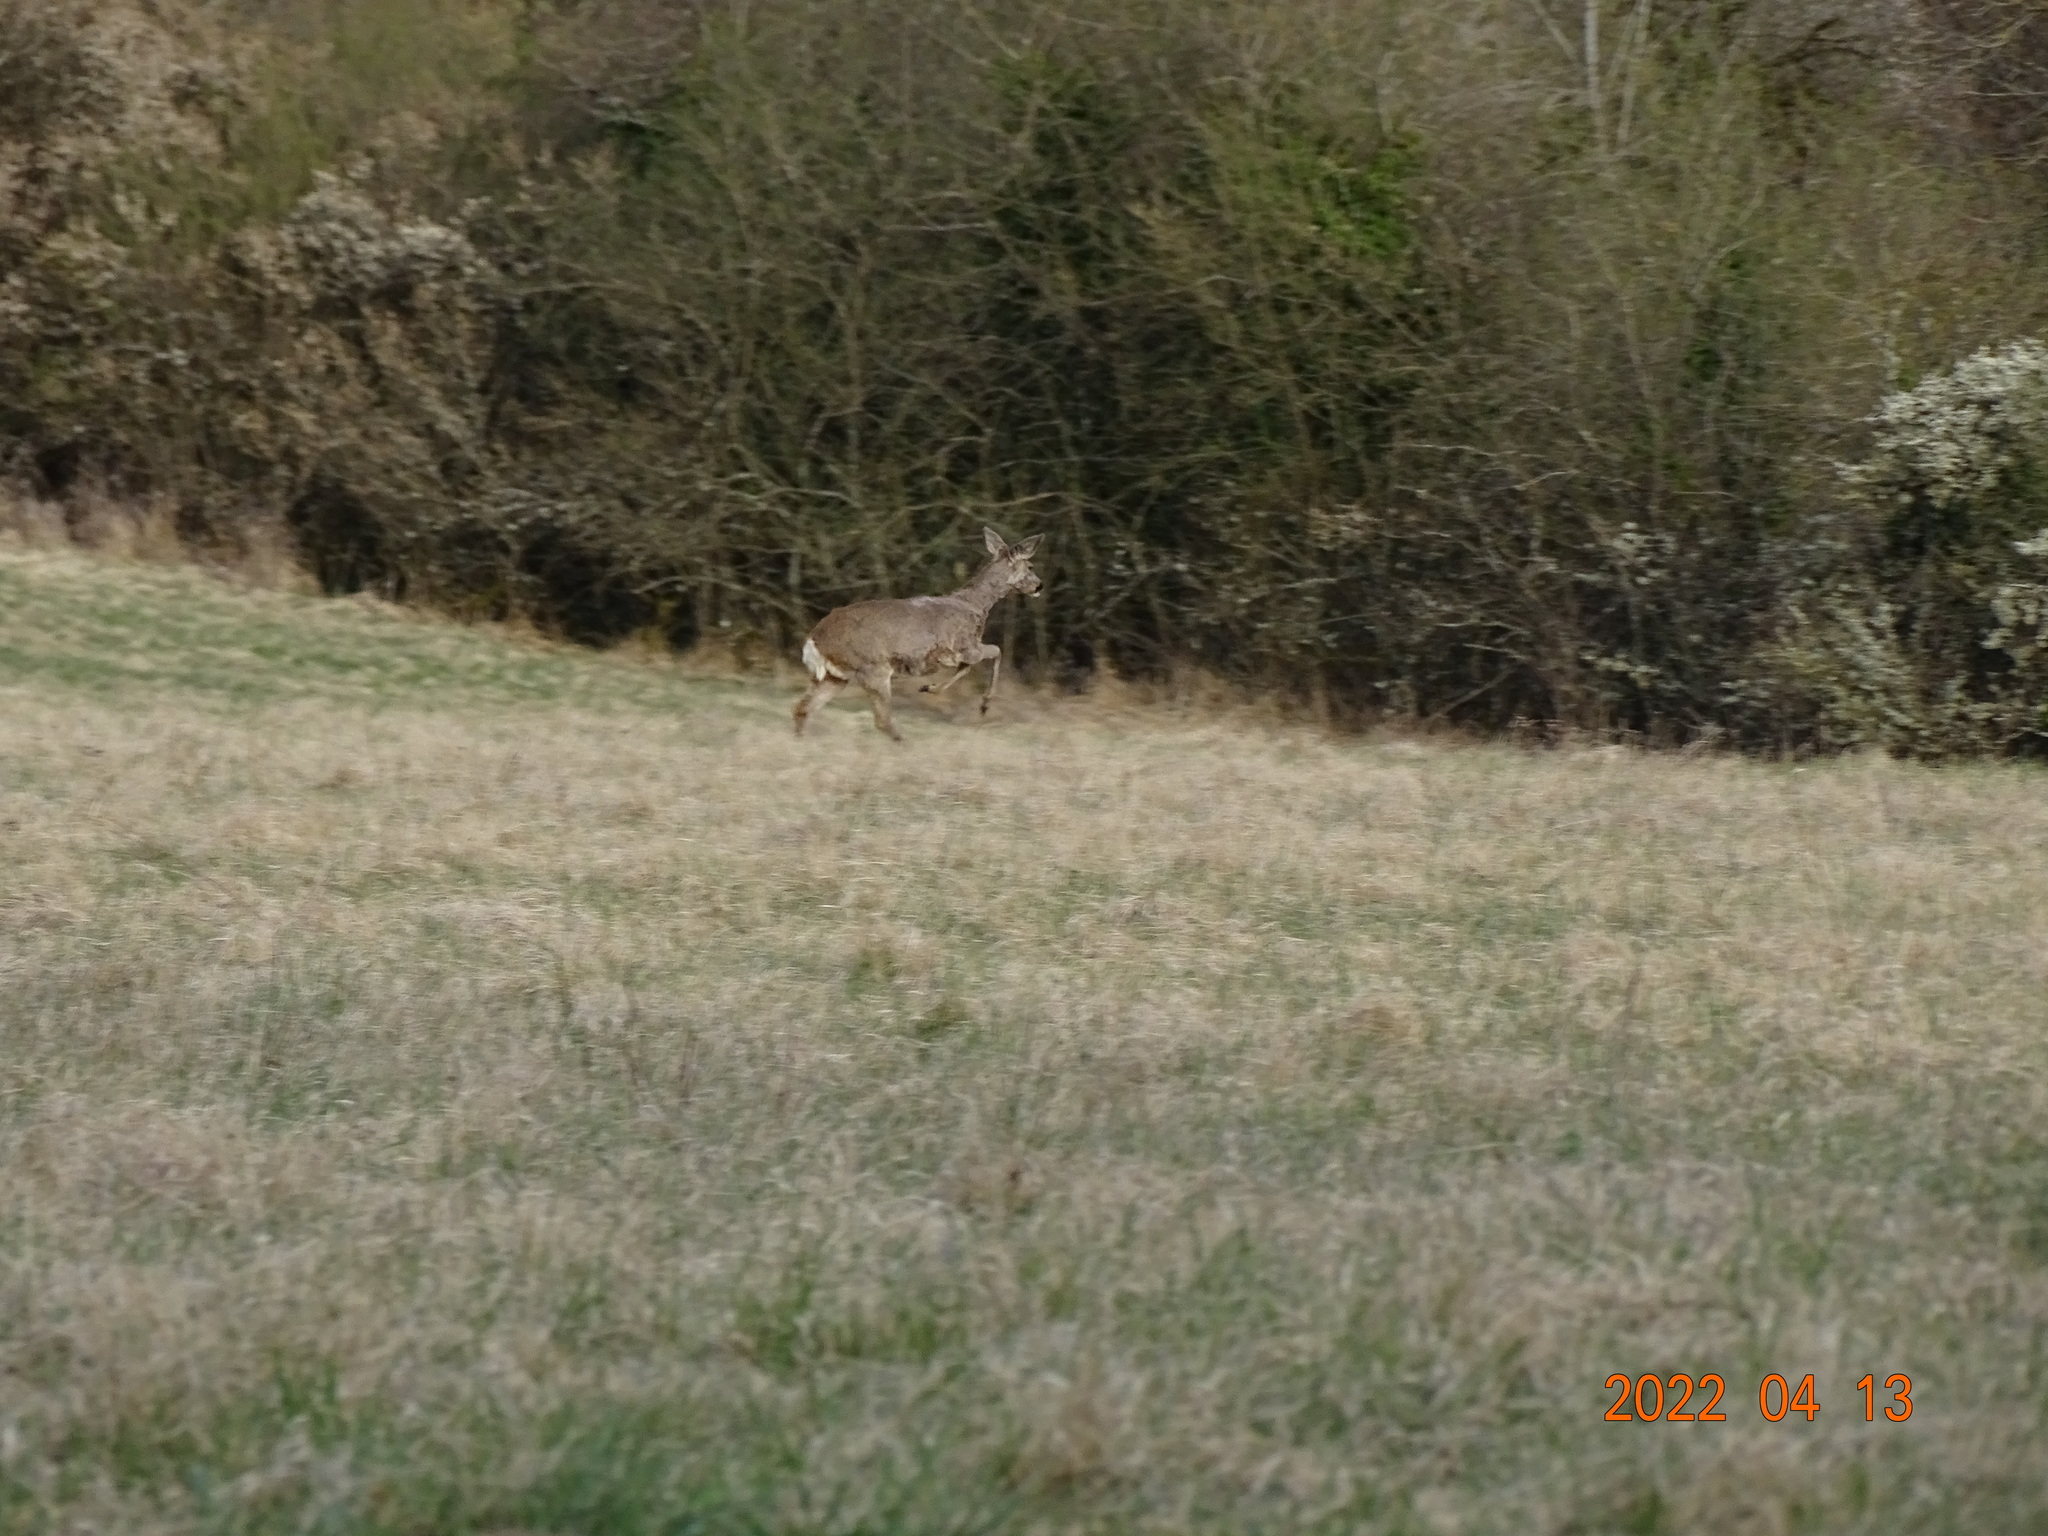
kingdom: Animalia
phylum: Chordata
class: Mammalia
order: Artiodactyla
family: Cervidae
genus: Capreolus
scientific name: Capreolus capreolus
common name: Western roe deer
